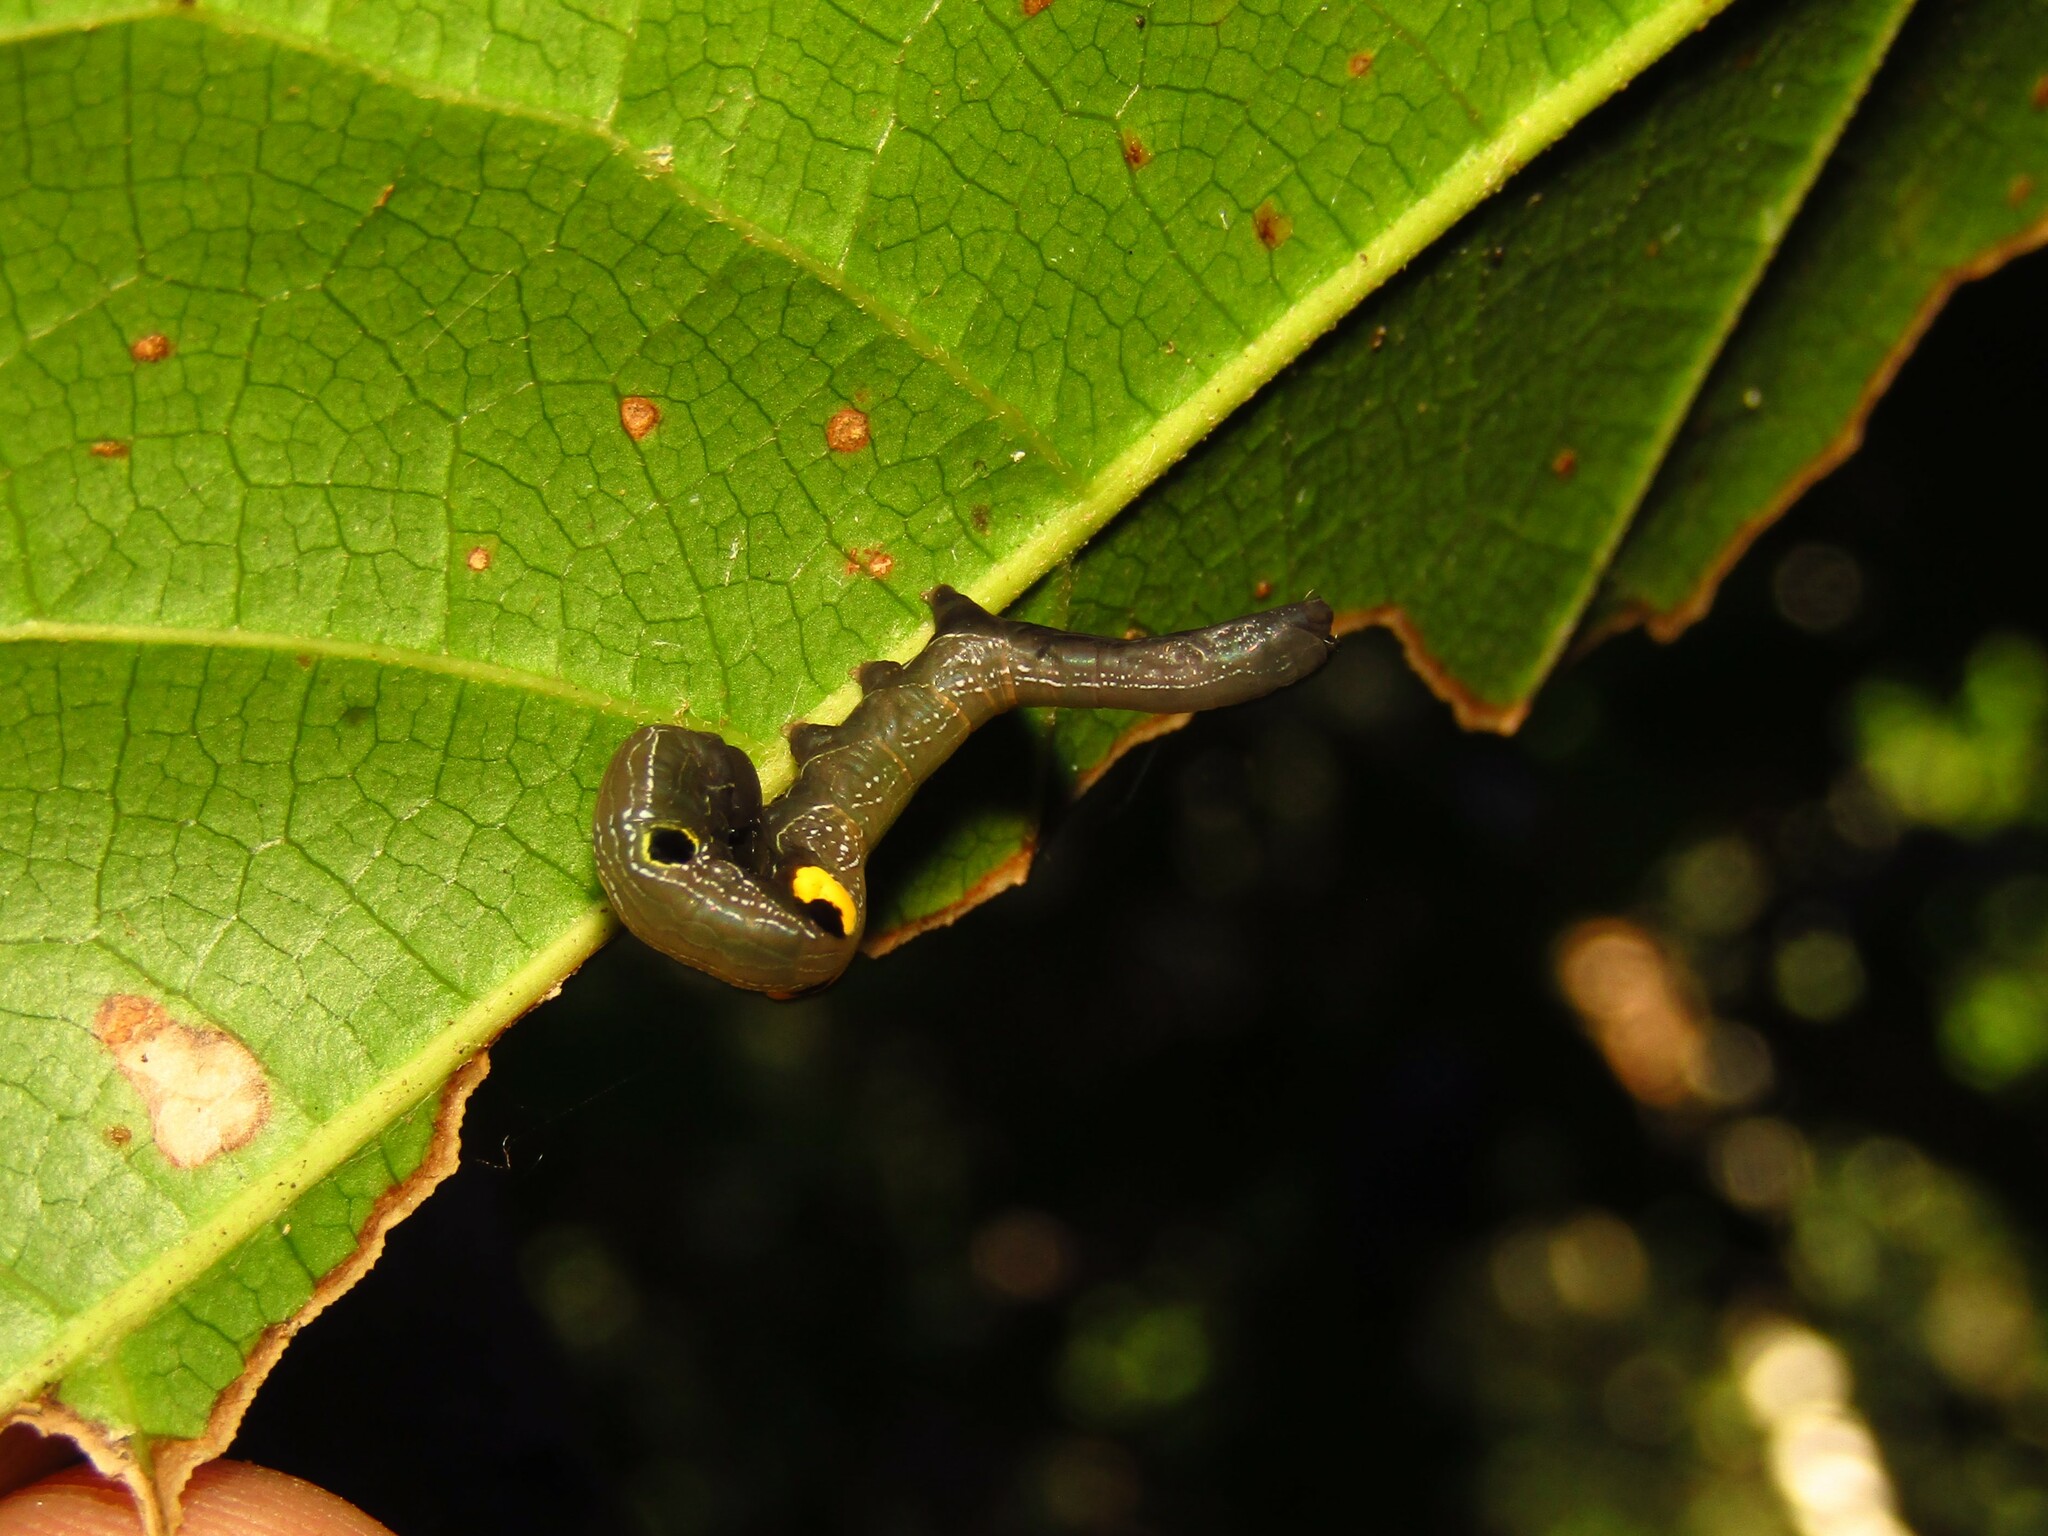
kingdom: Animalia
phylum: Arthropoda
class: Insecta
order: Lepidoptera
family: Erebidae
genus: Phyllodes
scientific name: Phyllodes imperialis
